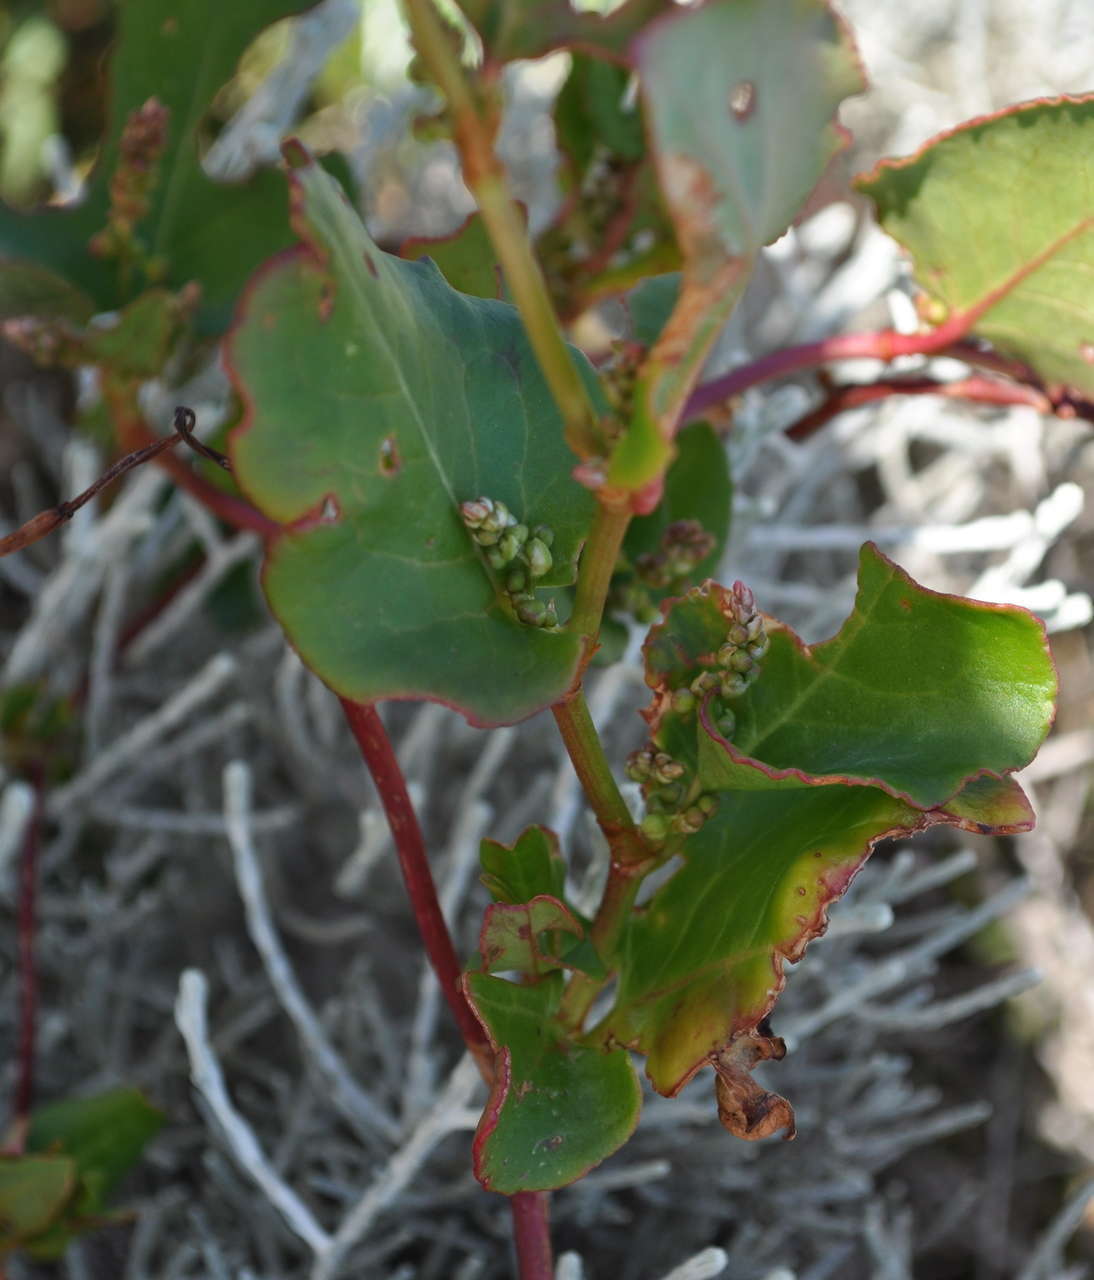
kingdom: Plantae
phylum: Tracheophyta
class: Magnoliopsida
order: Caryophyllales
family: Polygonaceae
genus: Muehlenbeckia
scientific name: Muehlenbeckia adpressa
